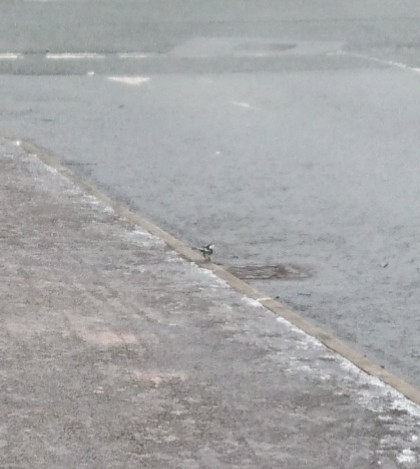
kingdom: Animalia
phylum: Chordata
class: Aves
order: Passeriformes
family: Motacillidae
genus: Motacilla
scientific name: Motacilla alba
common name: White wagtail
